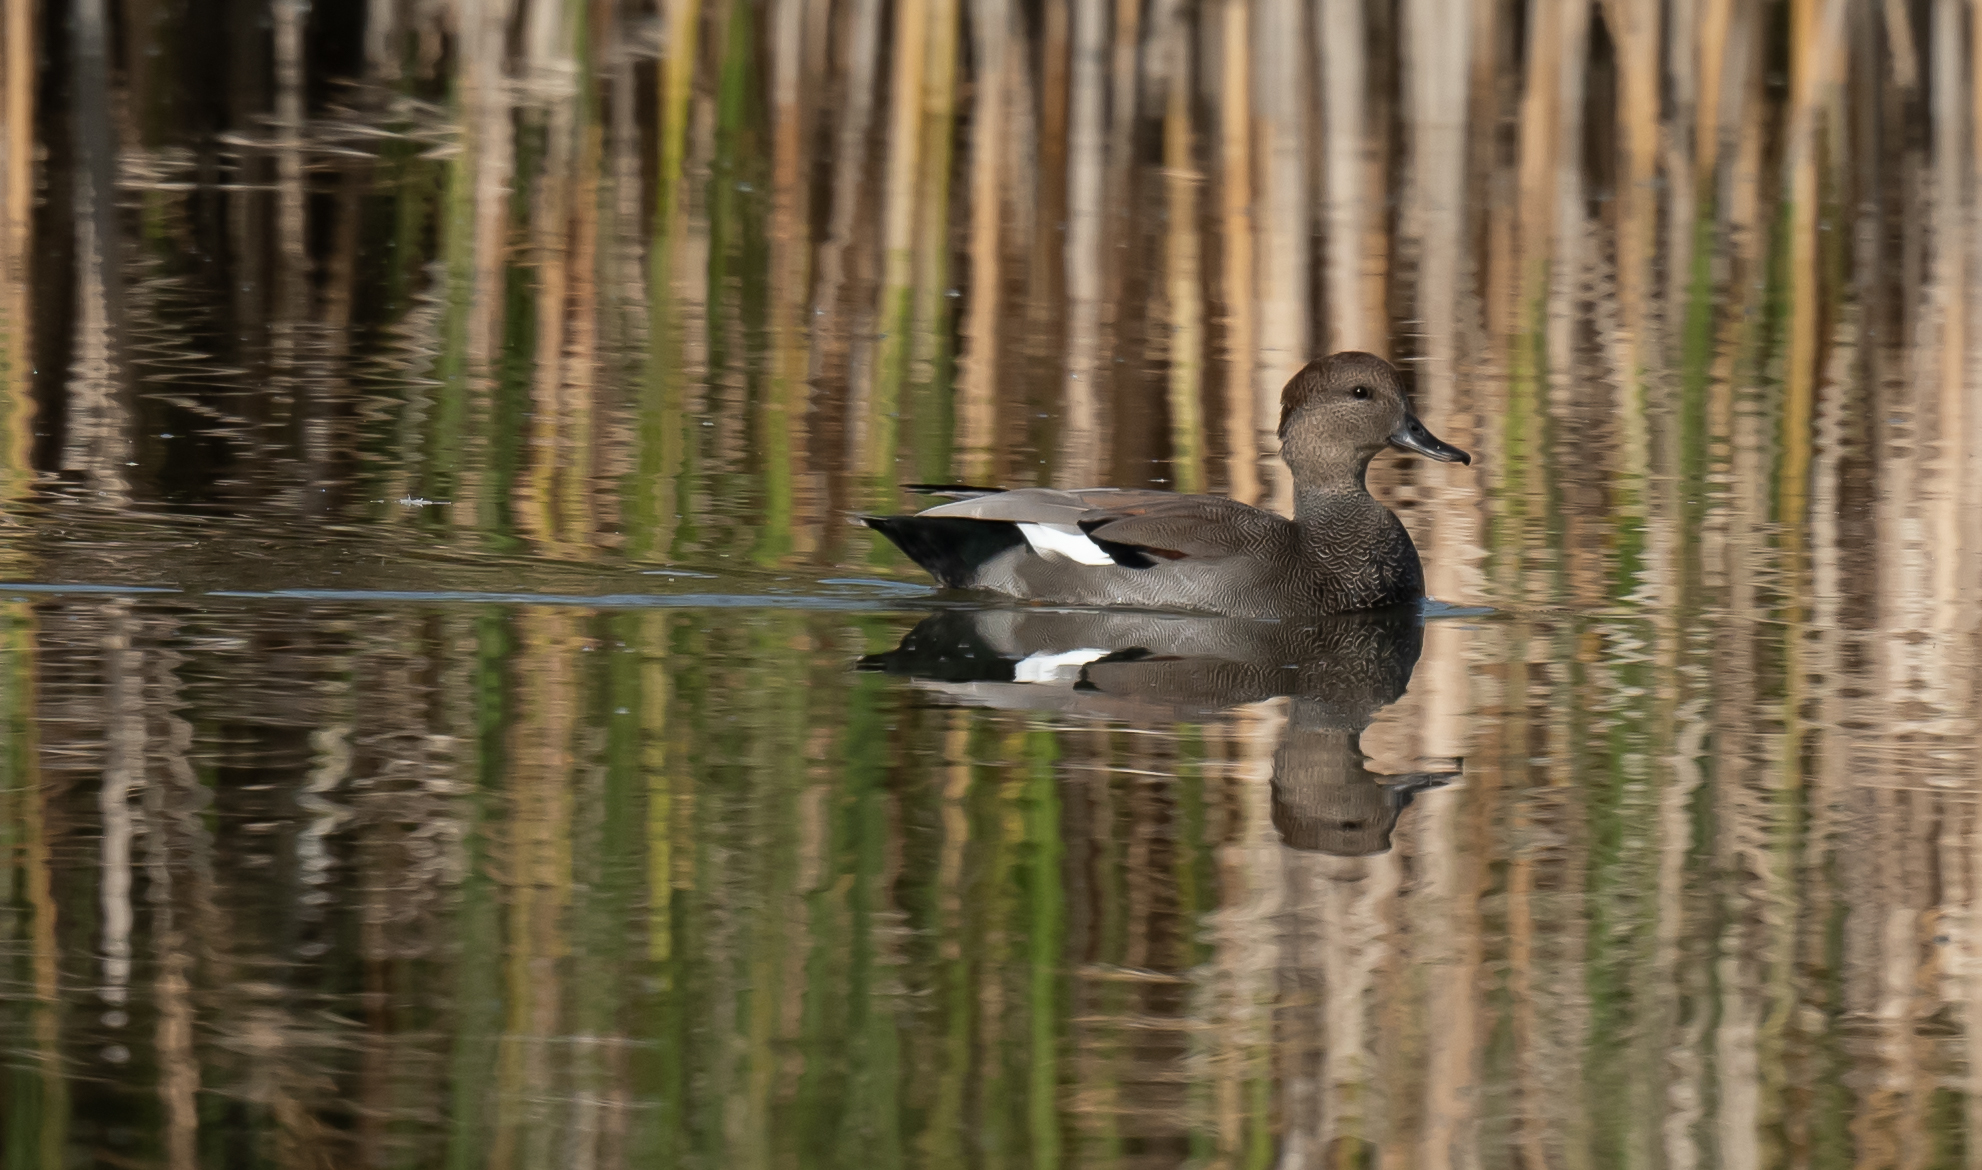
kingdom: Animalia
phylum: Chordata
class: Aves
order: Anseriformes
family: Anatidae
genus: Mareca
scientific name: Mareca strepera
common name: Gadwall
